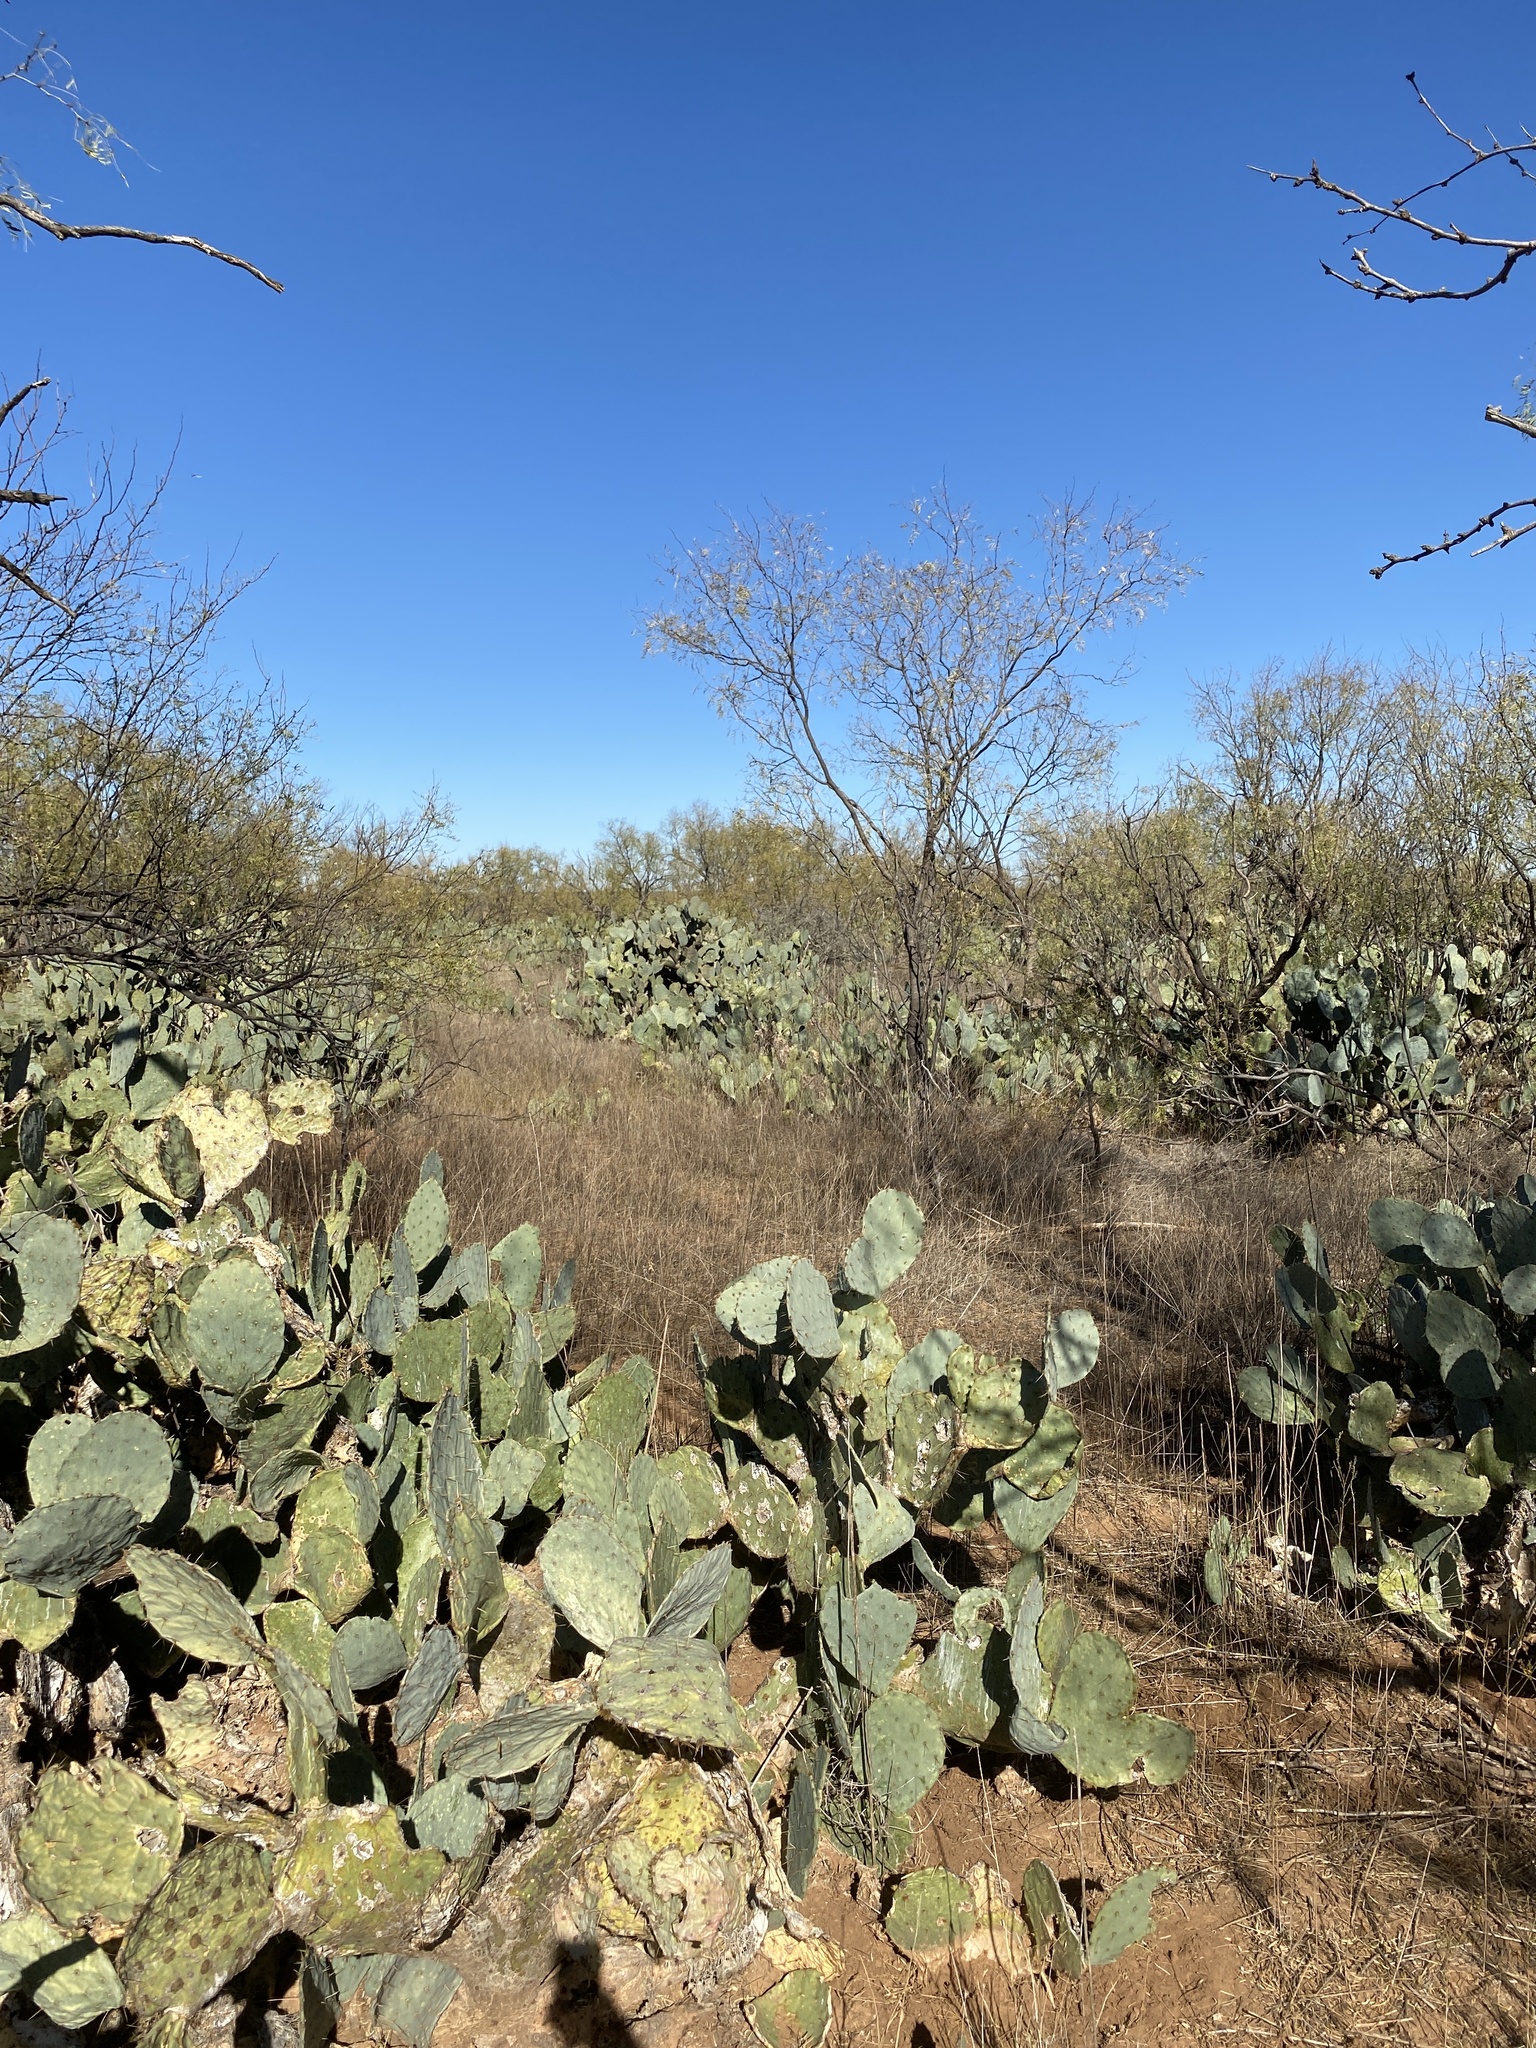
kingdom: Plantae
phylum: Tracheophyta
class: Magnoliopsida
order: Caryophyllales
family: Cactaceae
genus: Opuntia
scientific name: Opuntia engelmannii
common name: Cactus-apple
